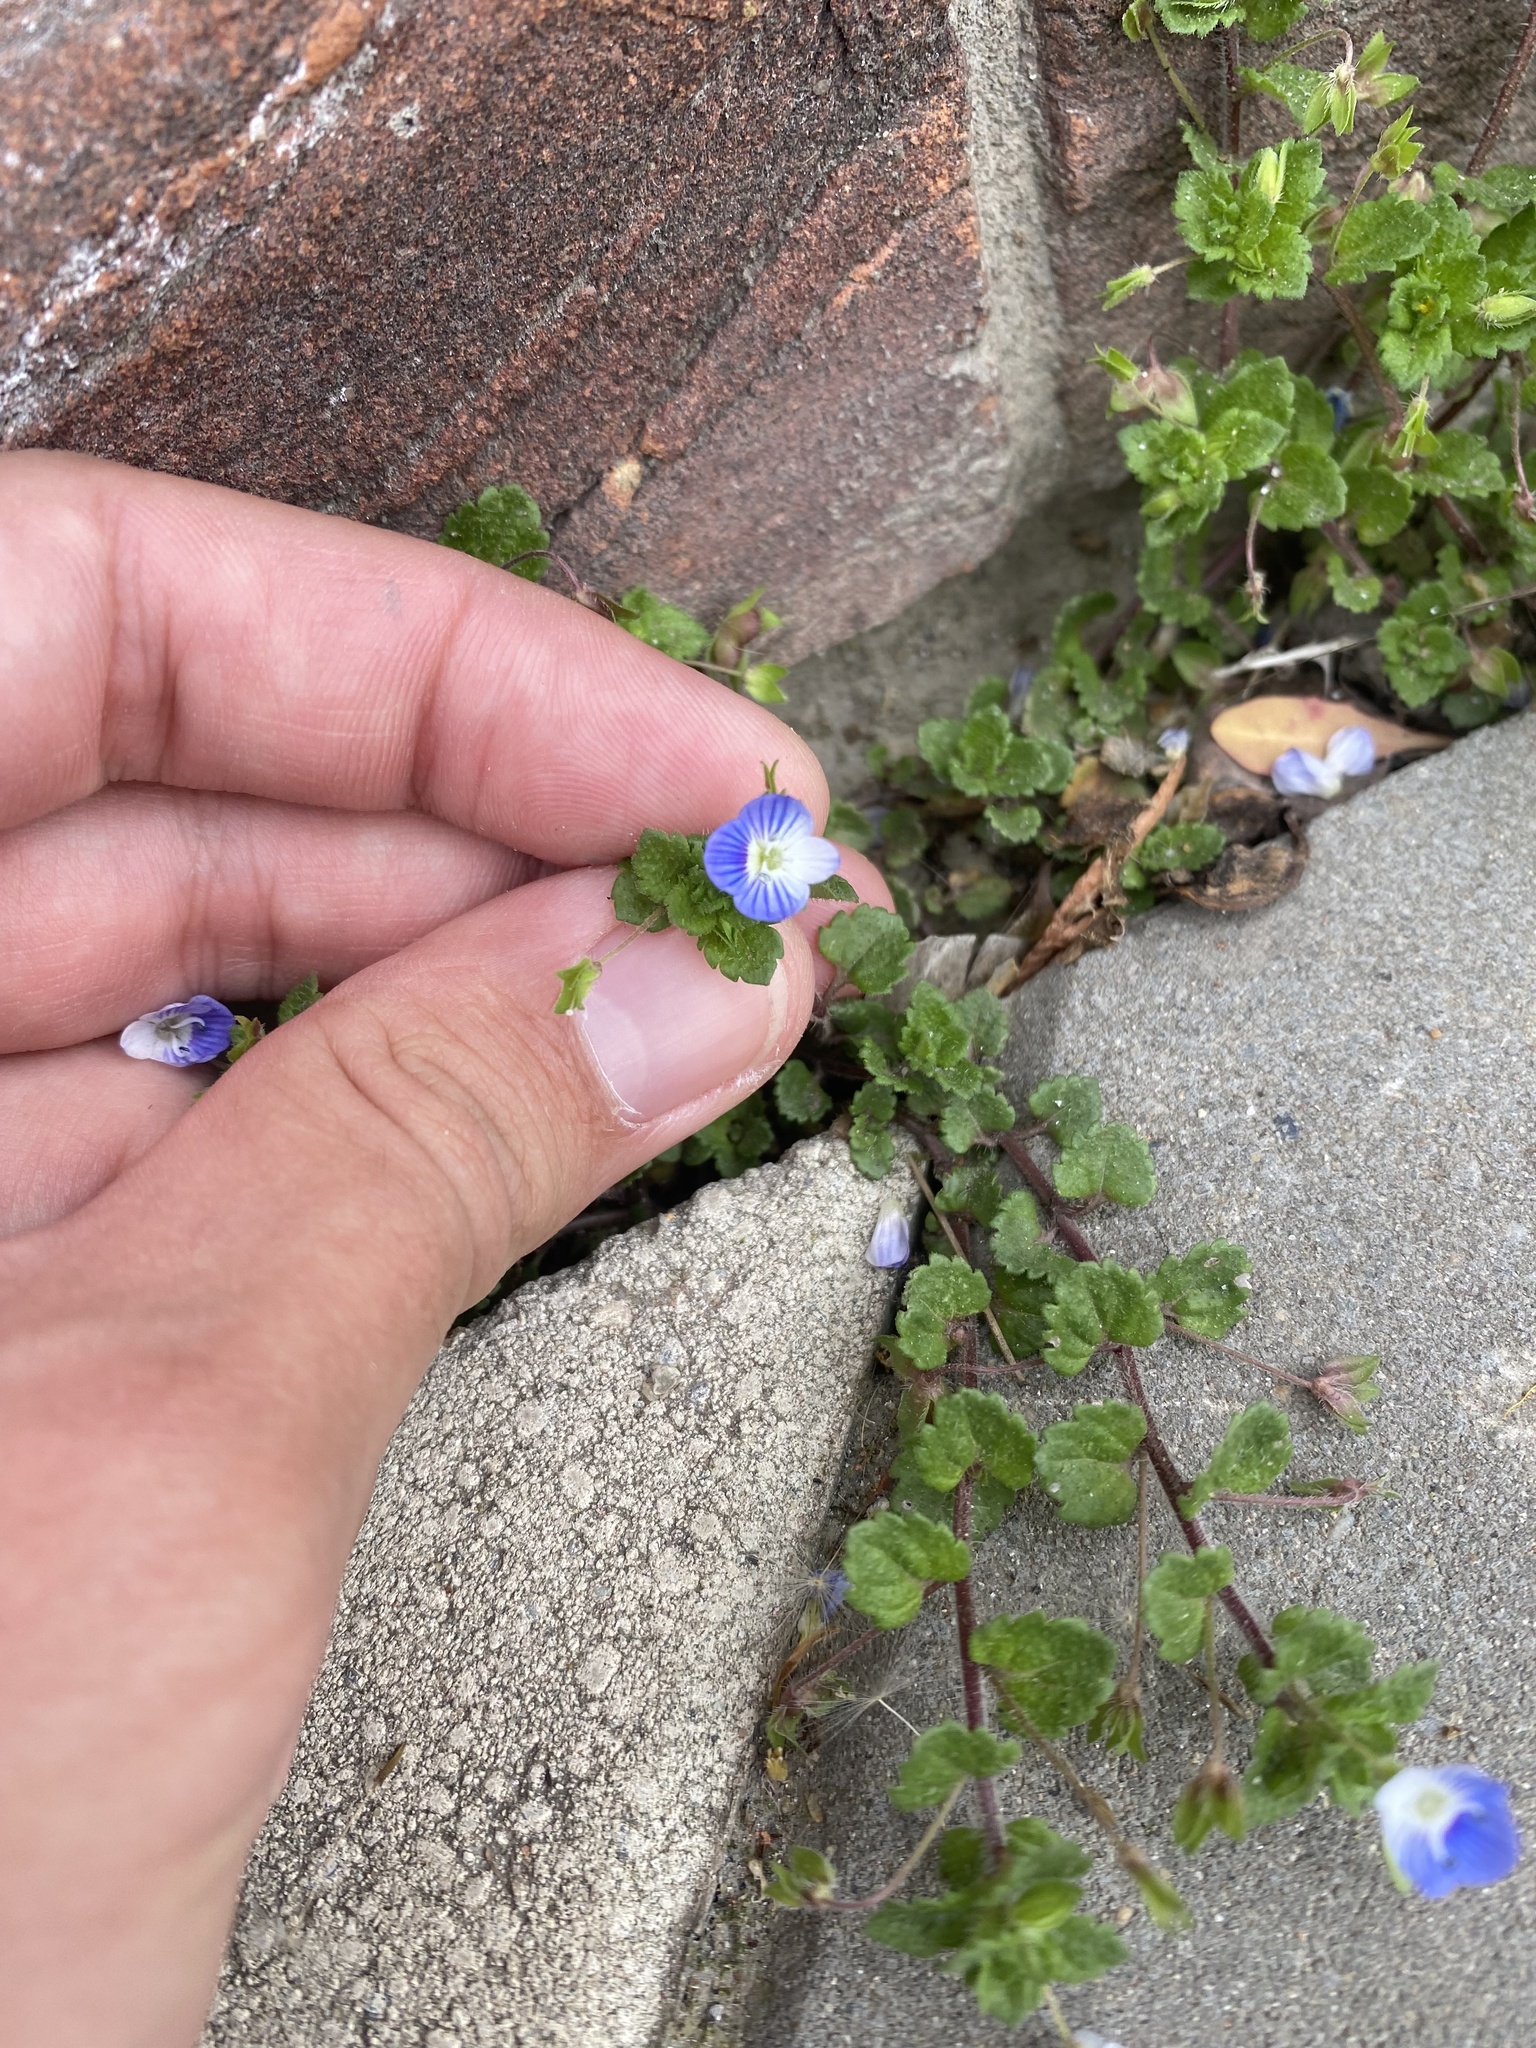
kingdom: Plantae
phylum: Tracheophyta
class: Magnoliopsida
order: Lamiales
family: Plantaginaceae
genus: Veronica
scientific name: Veronica persica
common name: Common field-speedwell
